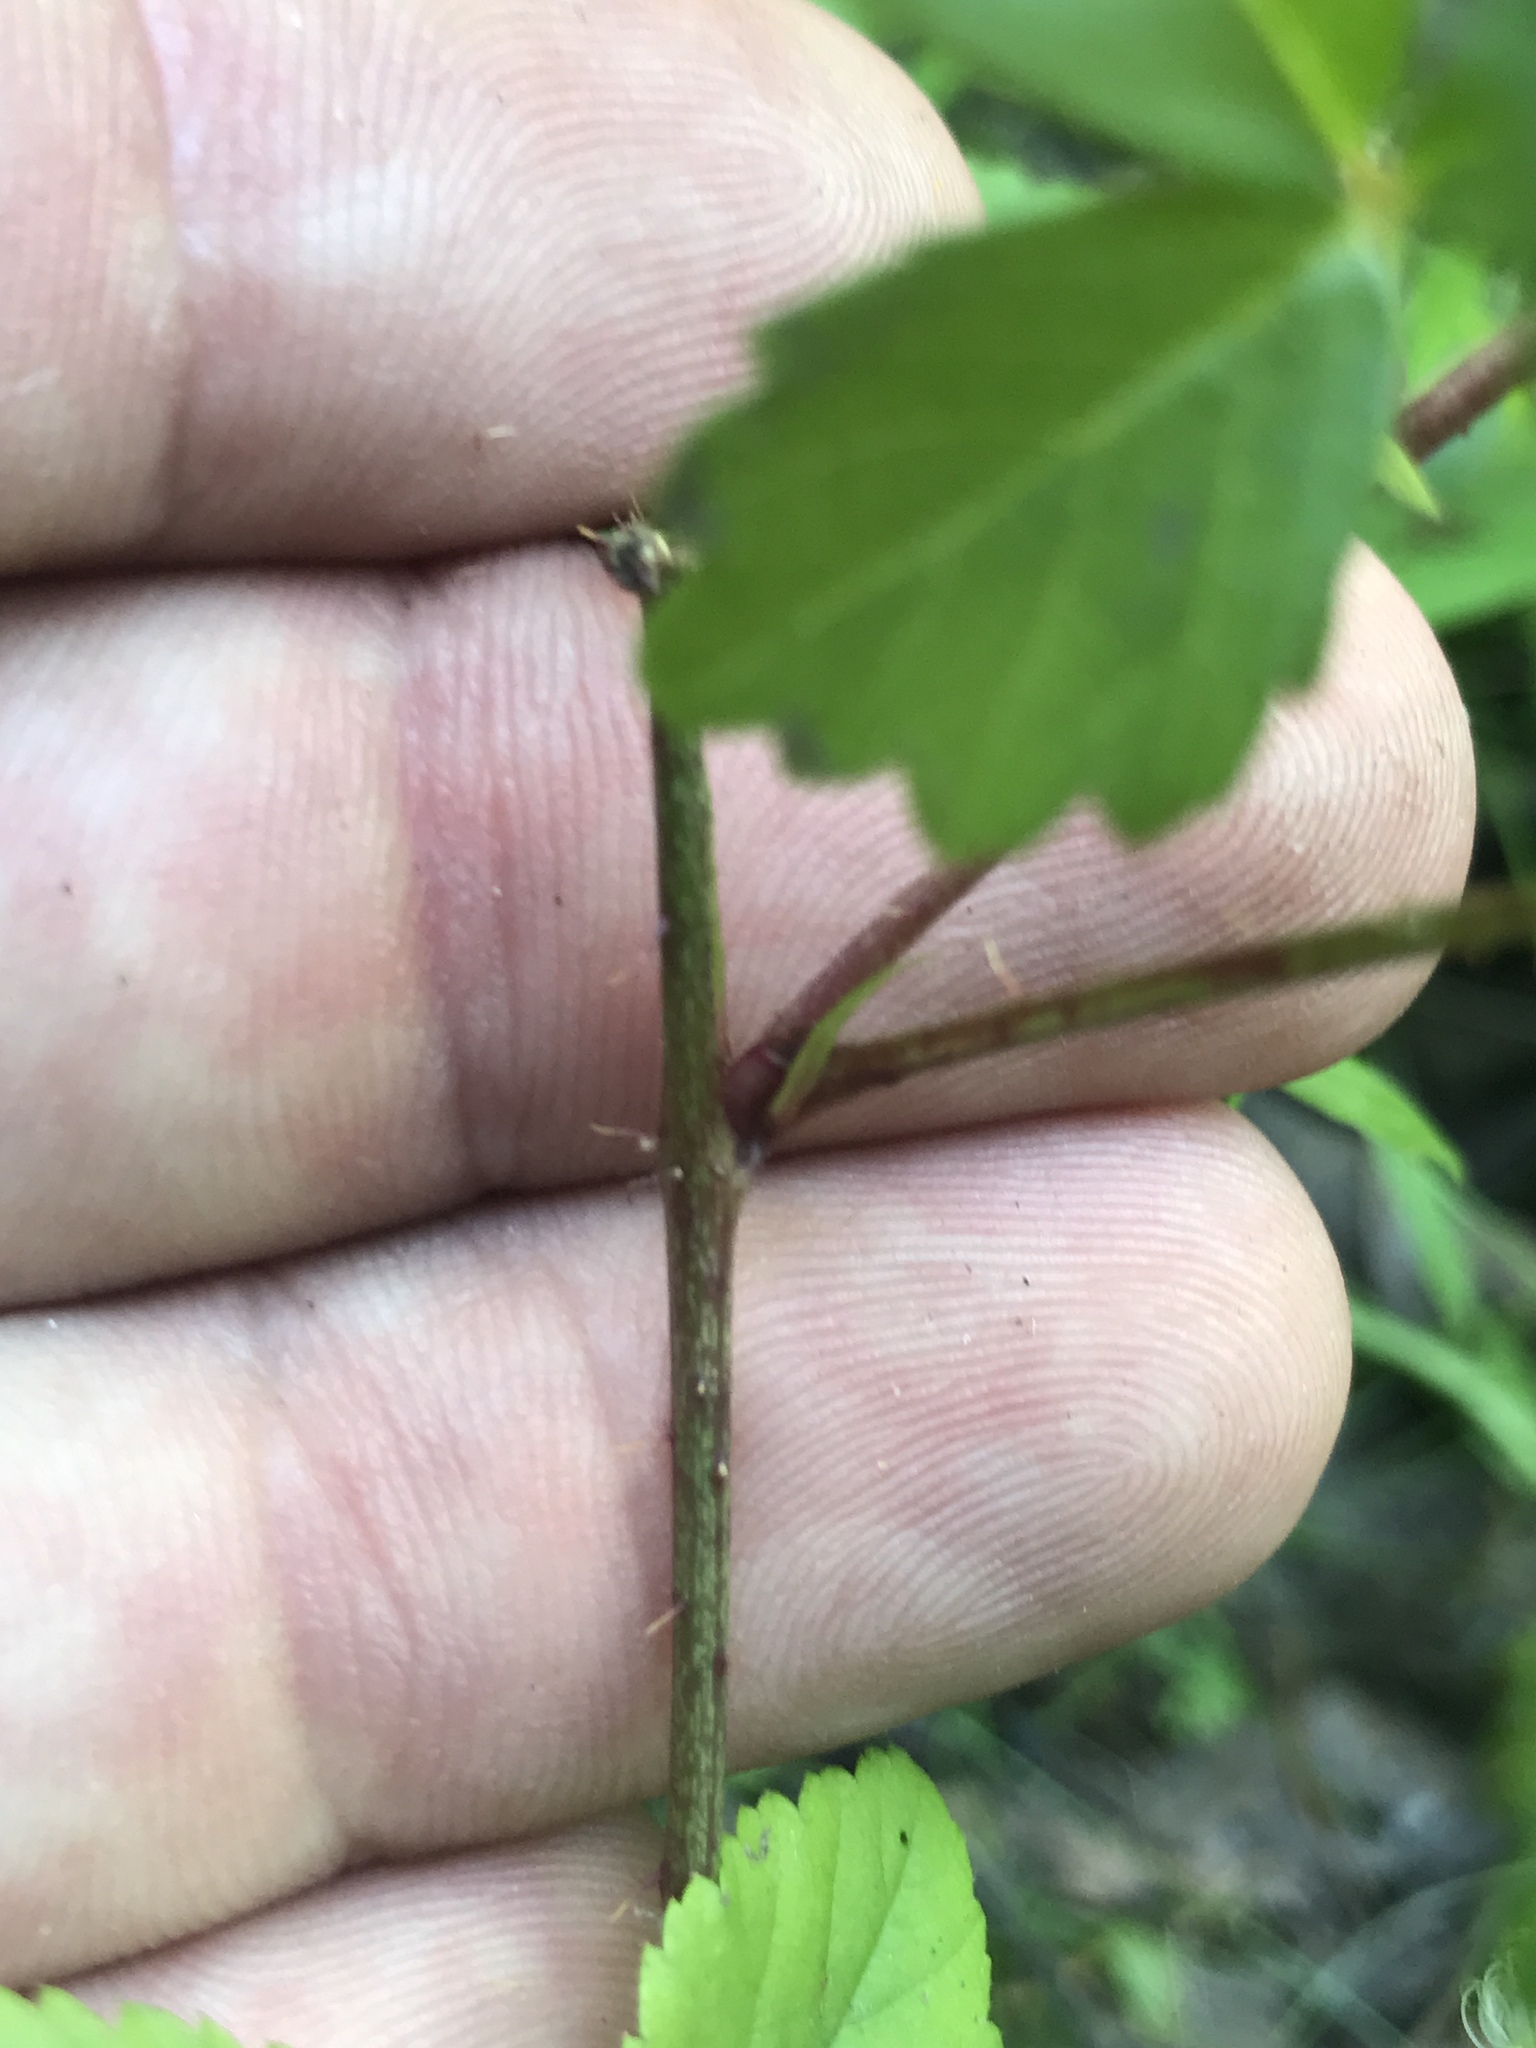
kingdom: Plantae
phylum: Tracheophyta
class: Magnoliopsida
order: Rosales
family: Rosaceae
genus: Rubus
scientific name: Rubus hispidus
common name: Running blackberry
